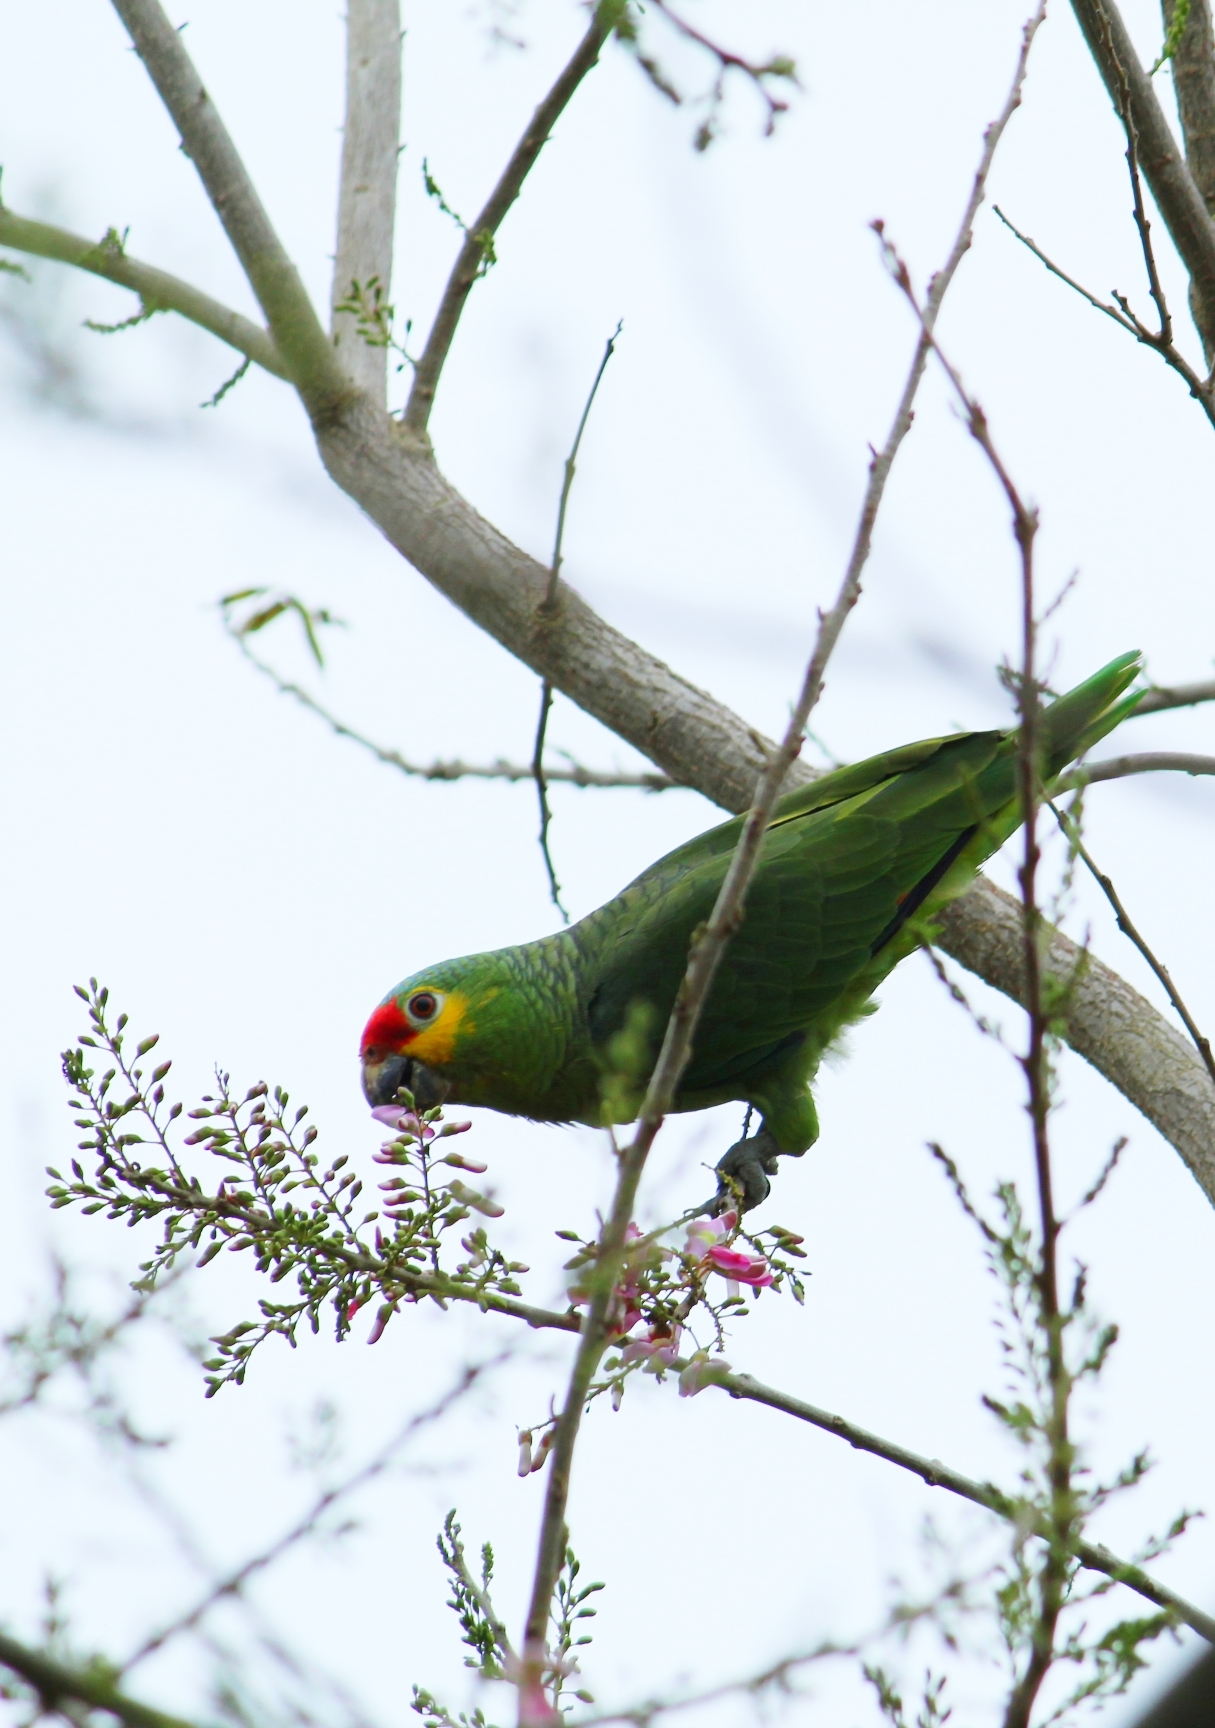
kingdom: Animalia
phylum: Chordata
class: Aves
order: Psittaciformes
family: Psittacidae
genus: Amazona
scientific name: Amazona autumnalis
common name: Red-lored amazon
